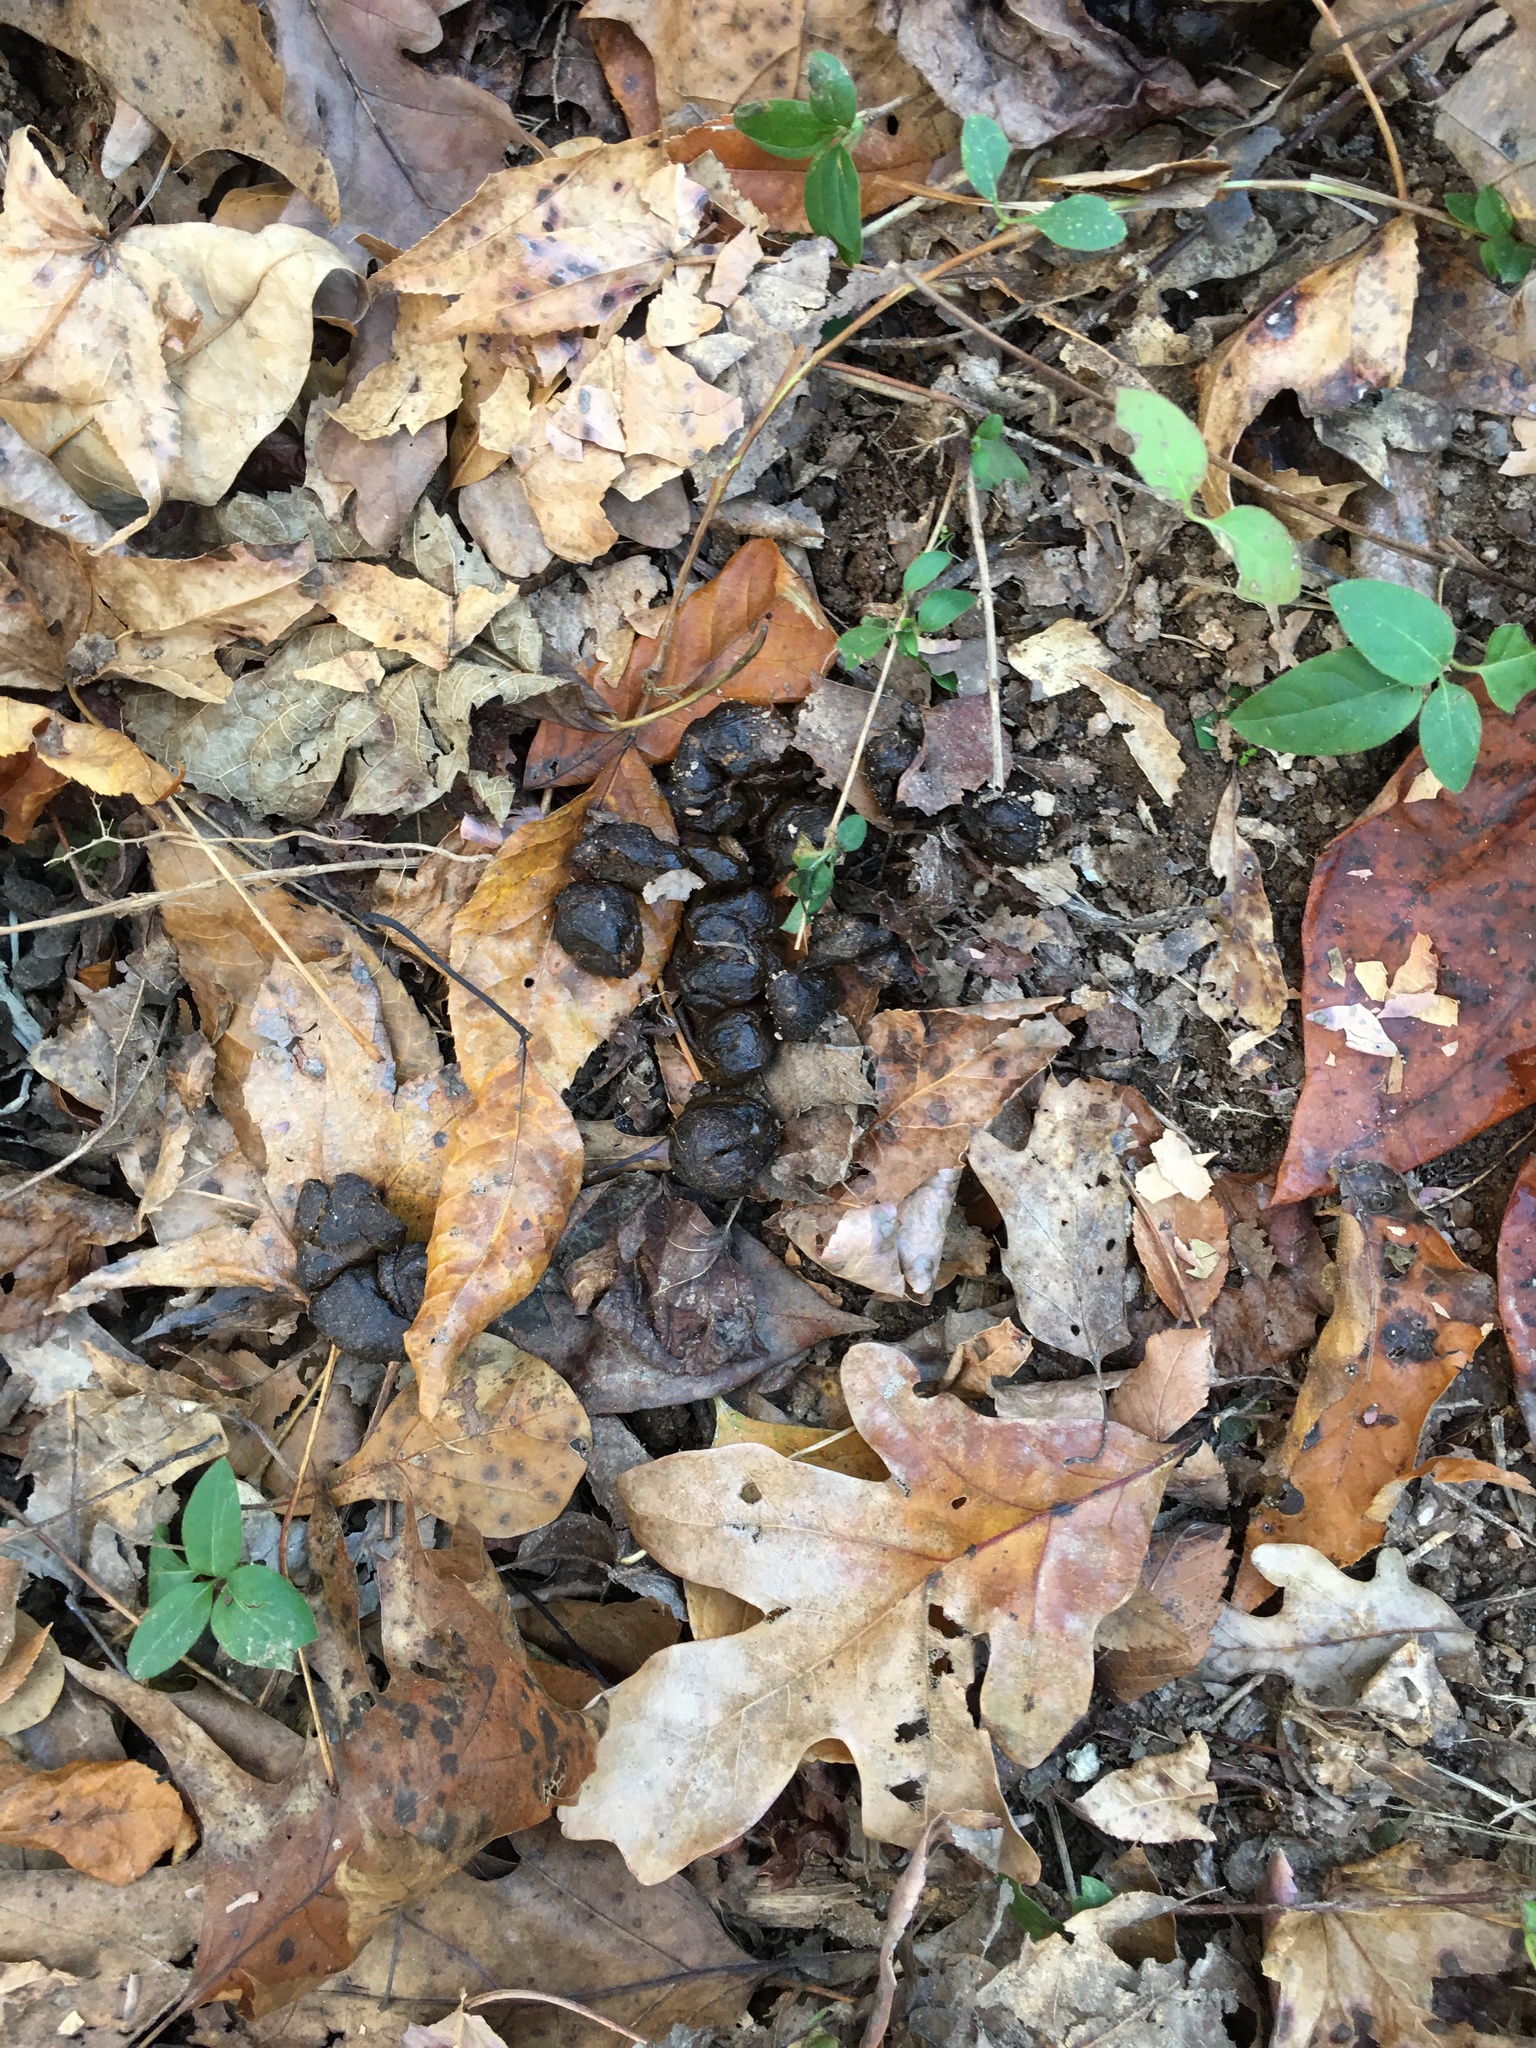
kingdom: Animalia
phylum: Chordata
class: Mammalia
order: Artiodactyla
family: Cervidae
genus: Odocoileus
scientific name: Odocoileus virginianus
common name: White-tailed deer
